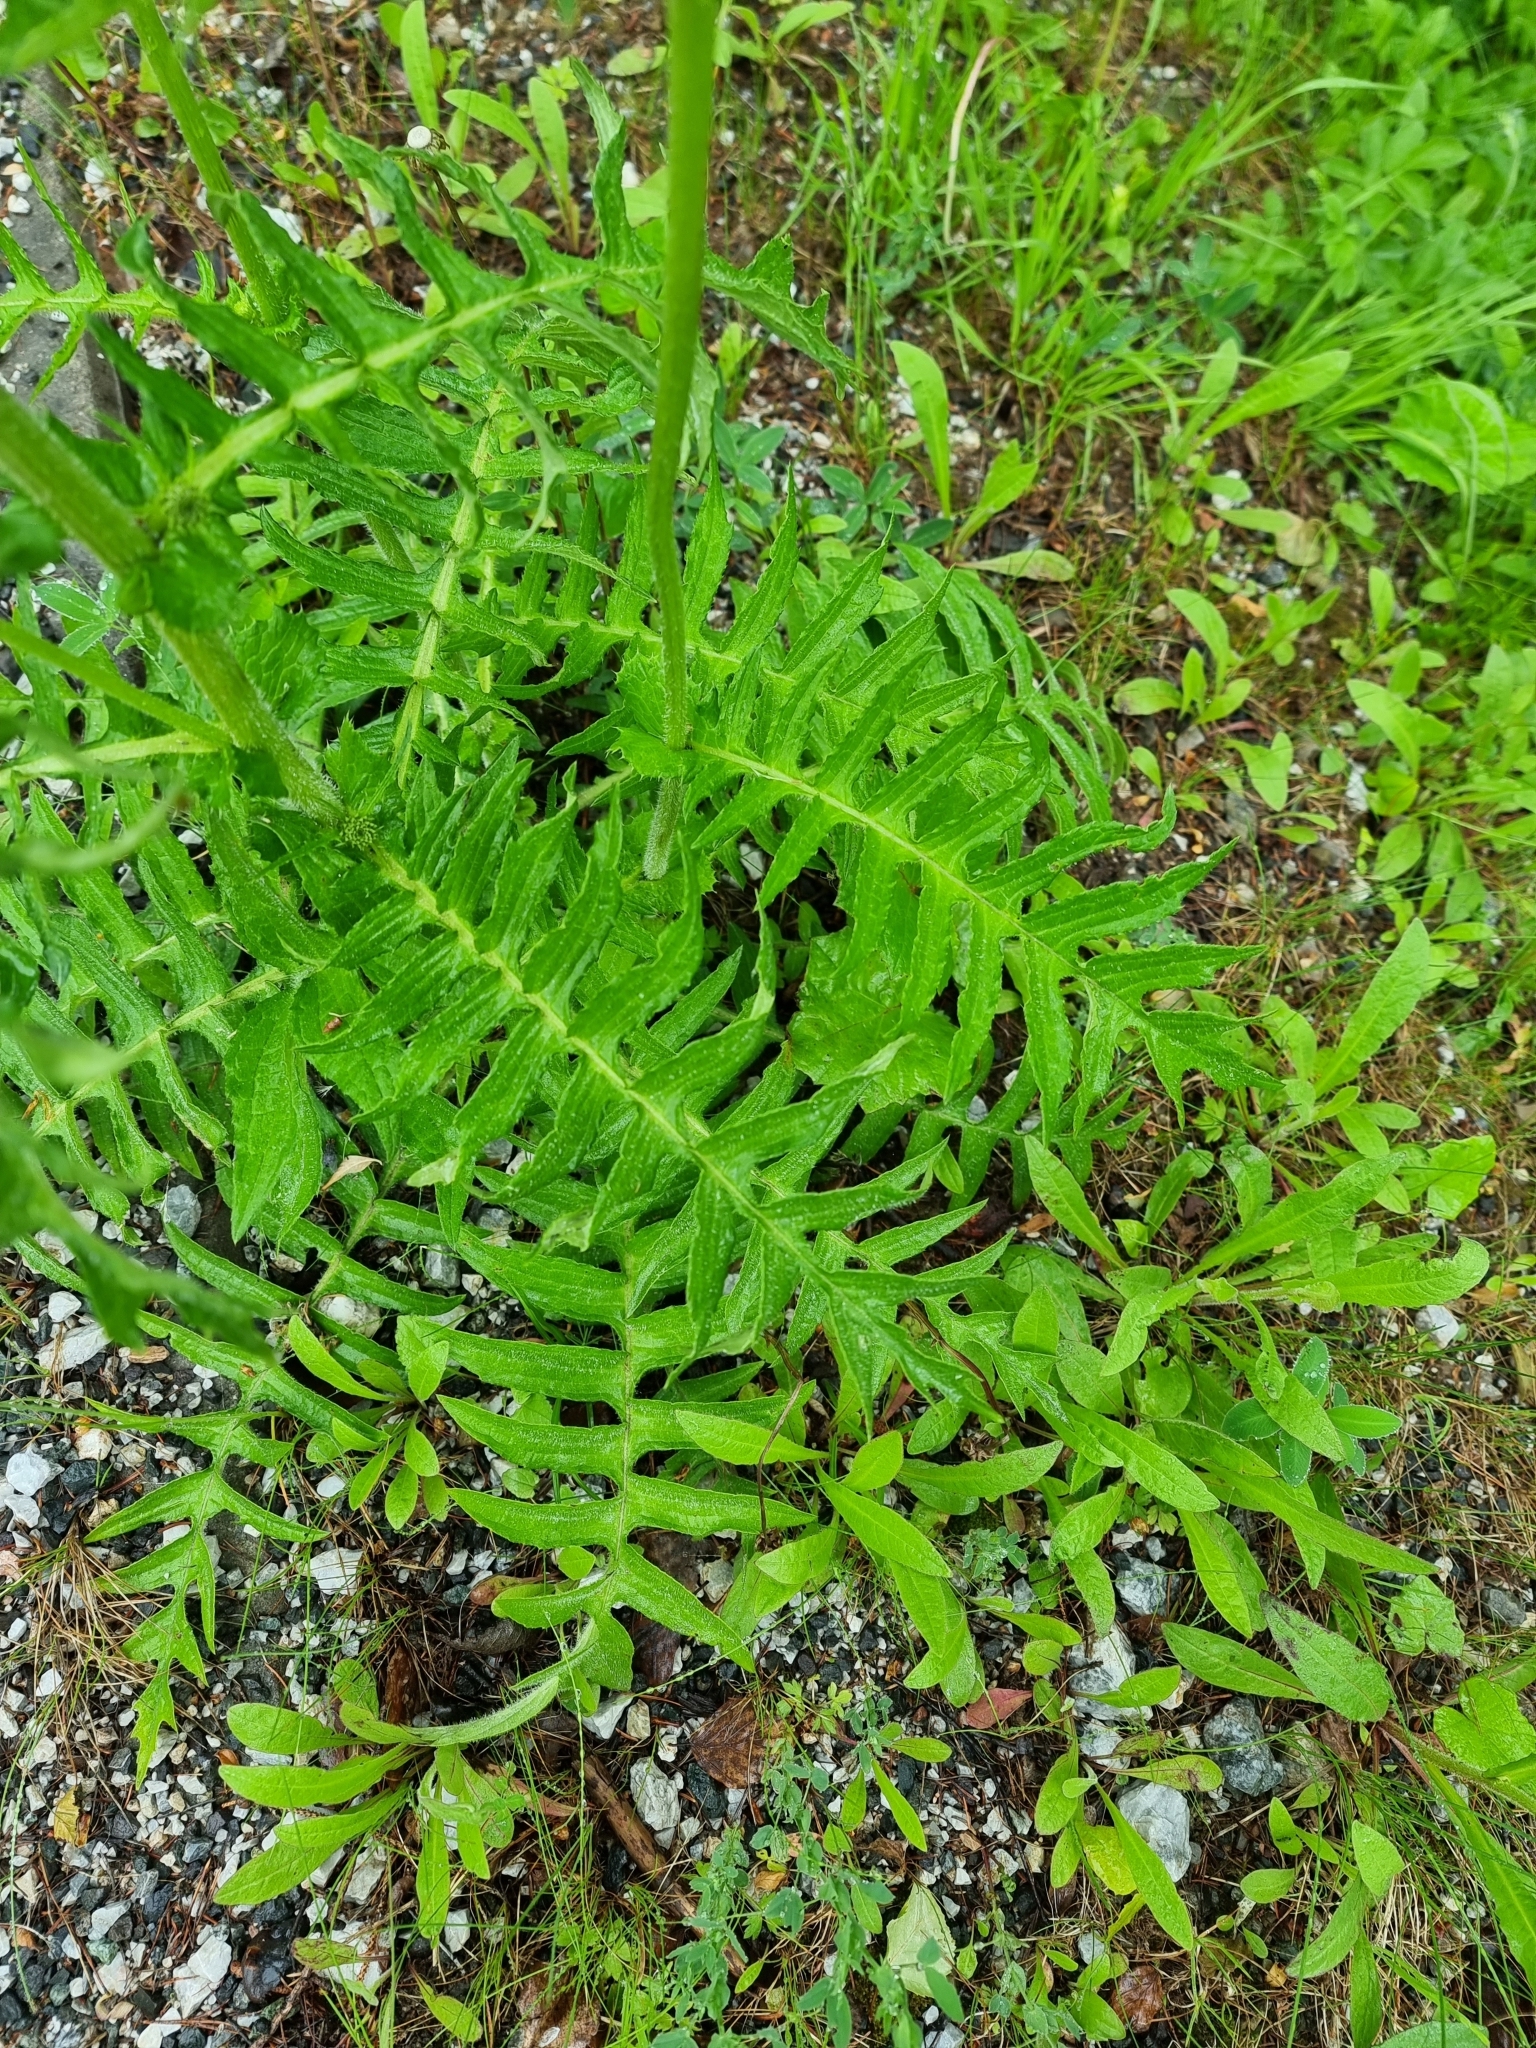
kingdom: Plantae
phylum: Tracheophyta
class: Magnoliopsida
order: Asterales
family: Asteraceae
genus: Cirsium
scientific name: Cirsium erisithales
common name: Yellow thistle
